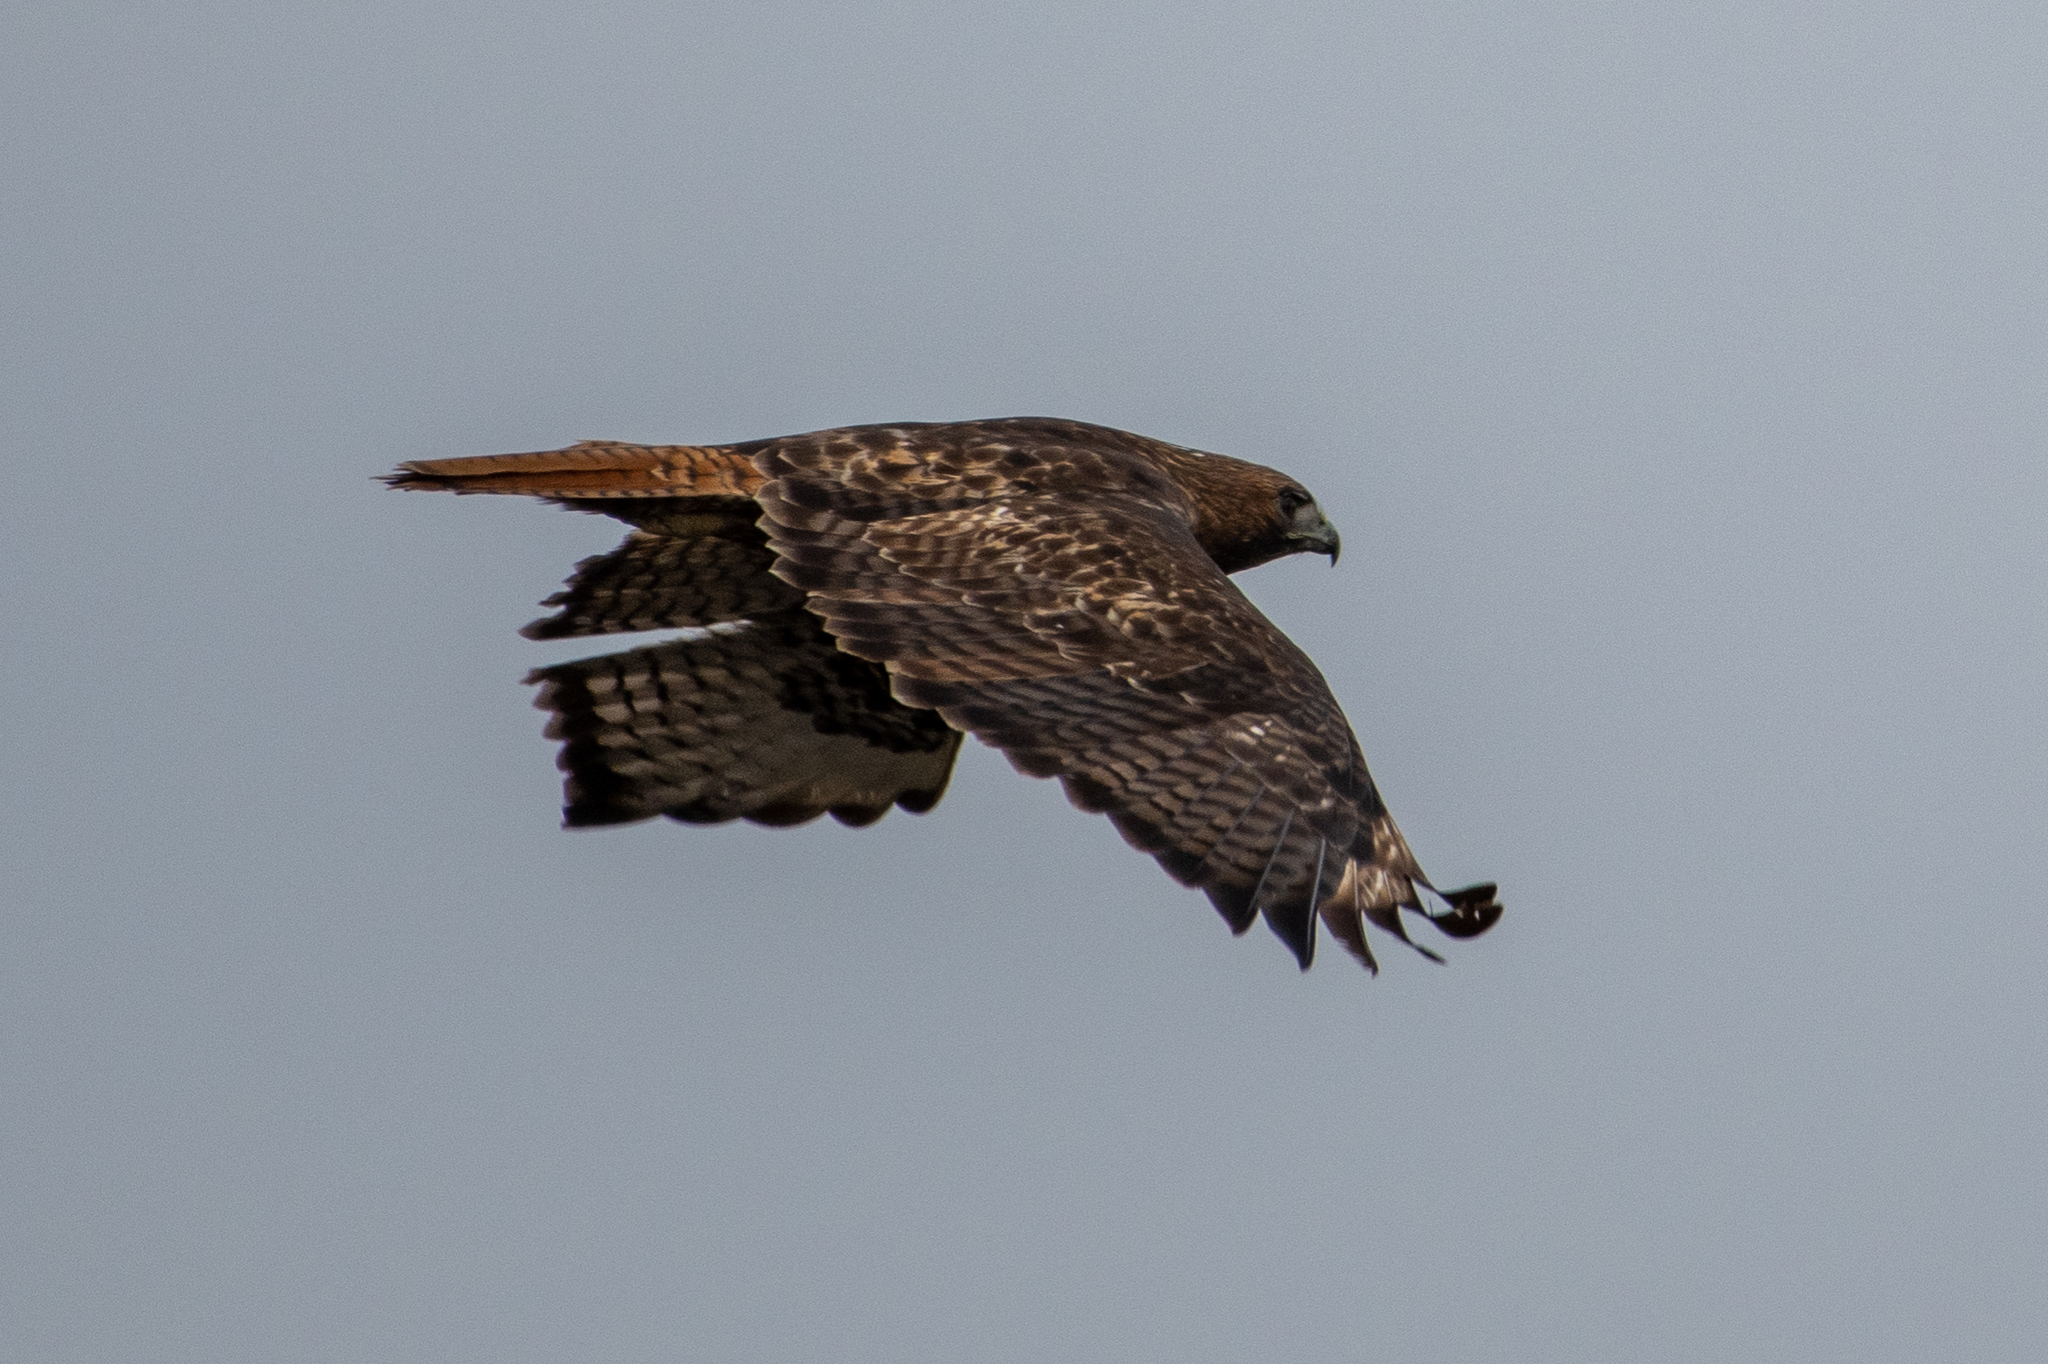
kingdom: Animalia
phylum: Chordata
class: Aves
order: Accipitriformes
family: Accipitridae
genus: Buteo
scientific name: Buteo jamaicensis
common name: Red-tailed hawk
